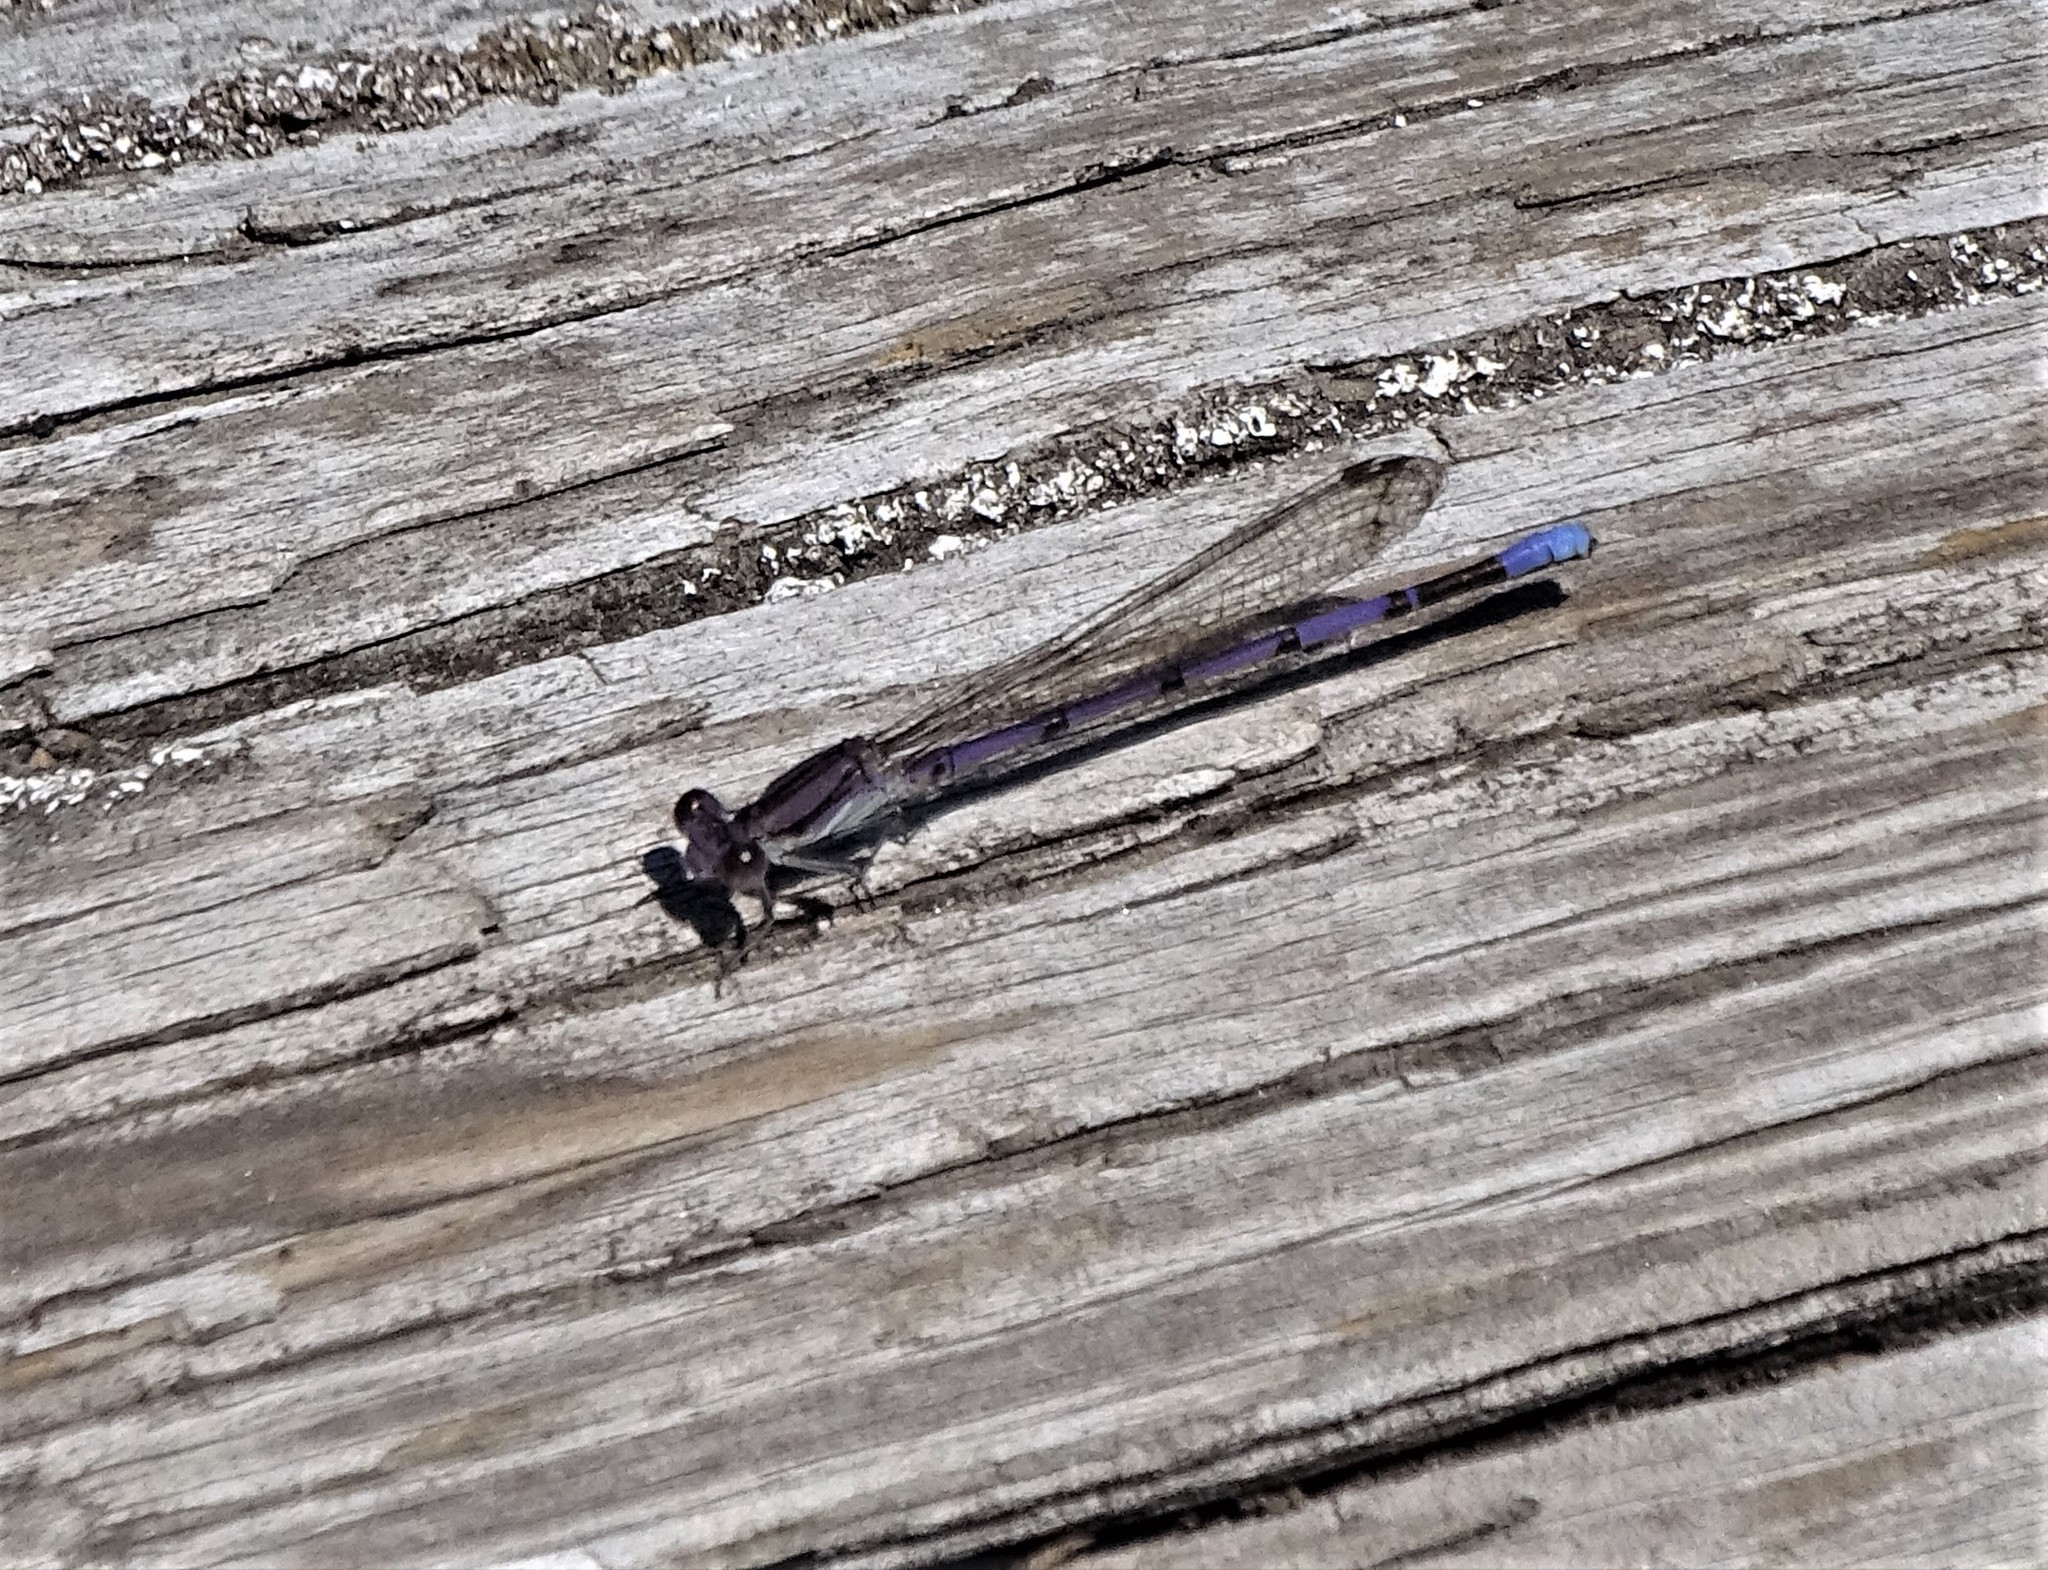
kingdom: Animalia
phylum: Arthropoda
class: Insecta
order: Odonata
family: Coenagrionidae
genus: Argia
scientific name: Argia fumipennis
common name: Variable dancer
